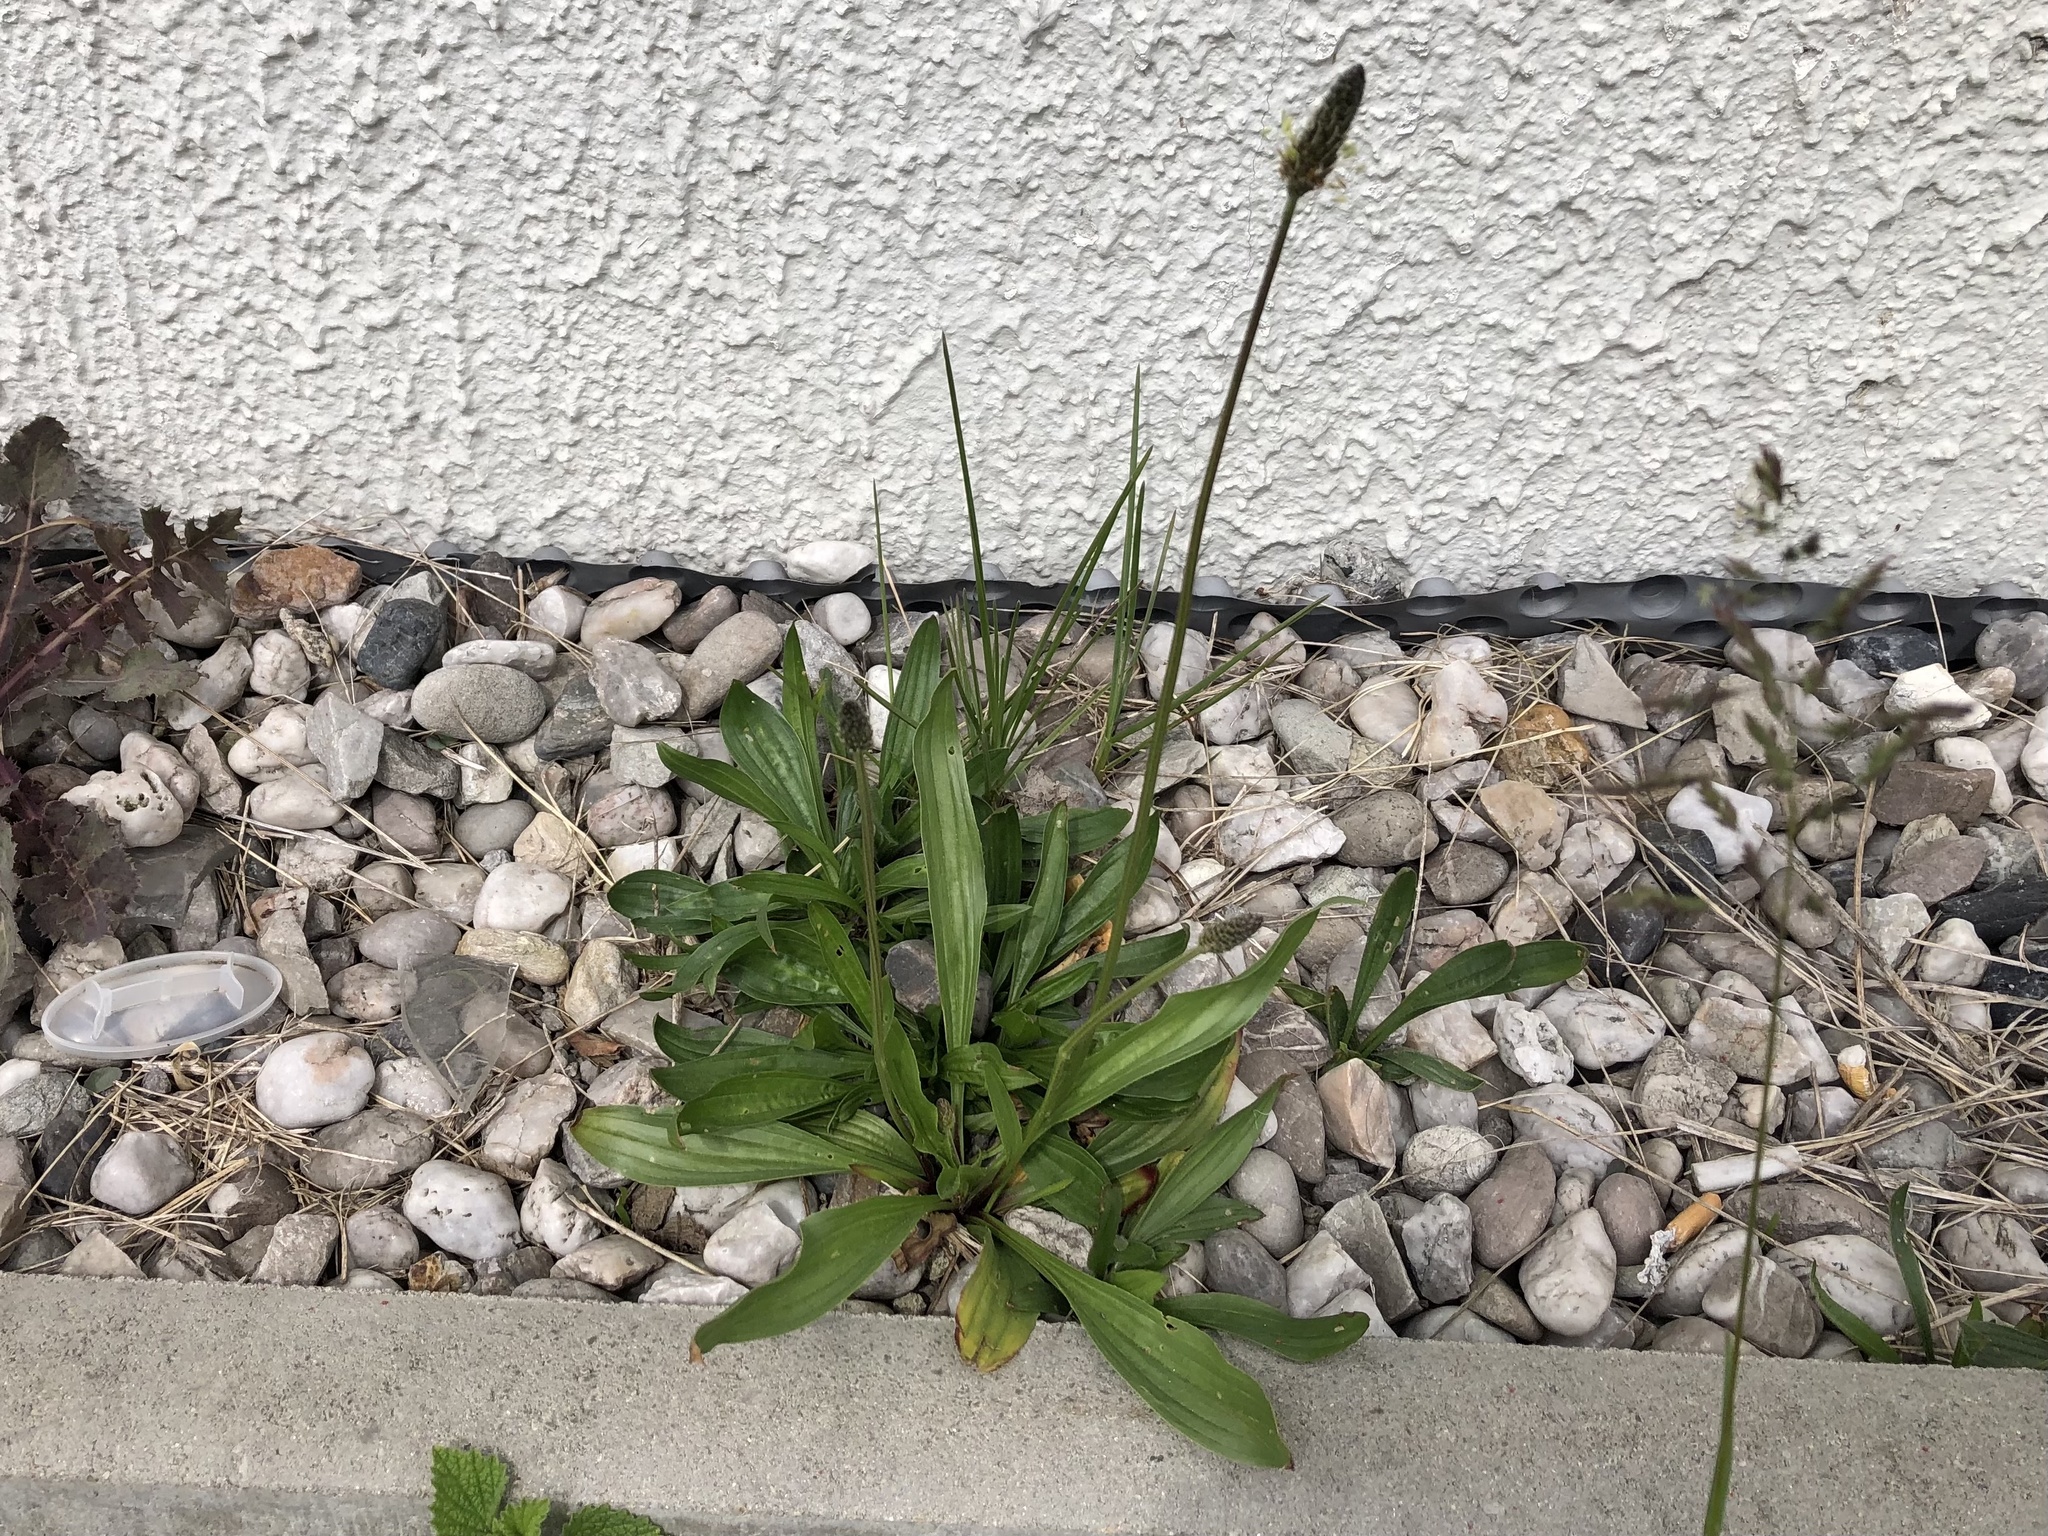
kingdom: Plantae
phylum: Tracheophyta
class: Magnoliopsida
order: Lamiales
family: Plantaginaceae
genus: Plantago
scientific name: Plantago lanceolata
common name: Ribwort plantain
